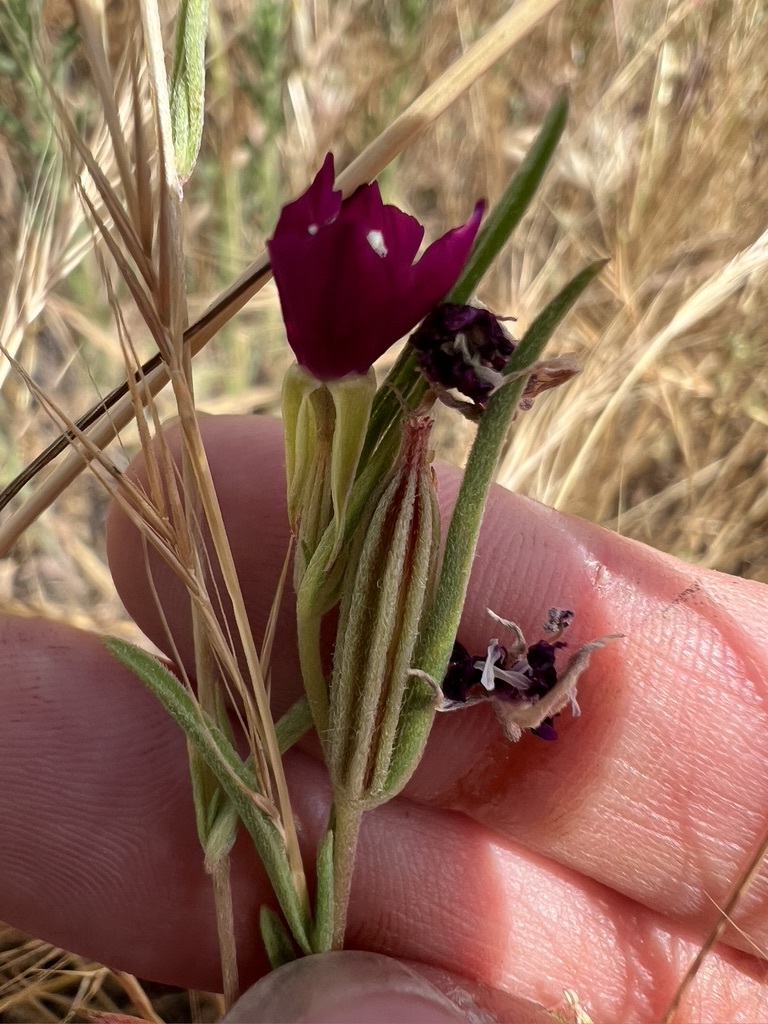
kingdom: Plantae
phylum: Tracheophyta
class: Magnoliopsida
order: Myrtales
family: Onagraceae
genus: Clarkia
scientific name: Clarkia purpurea
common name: Purple clarkia
